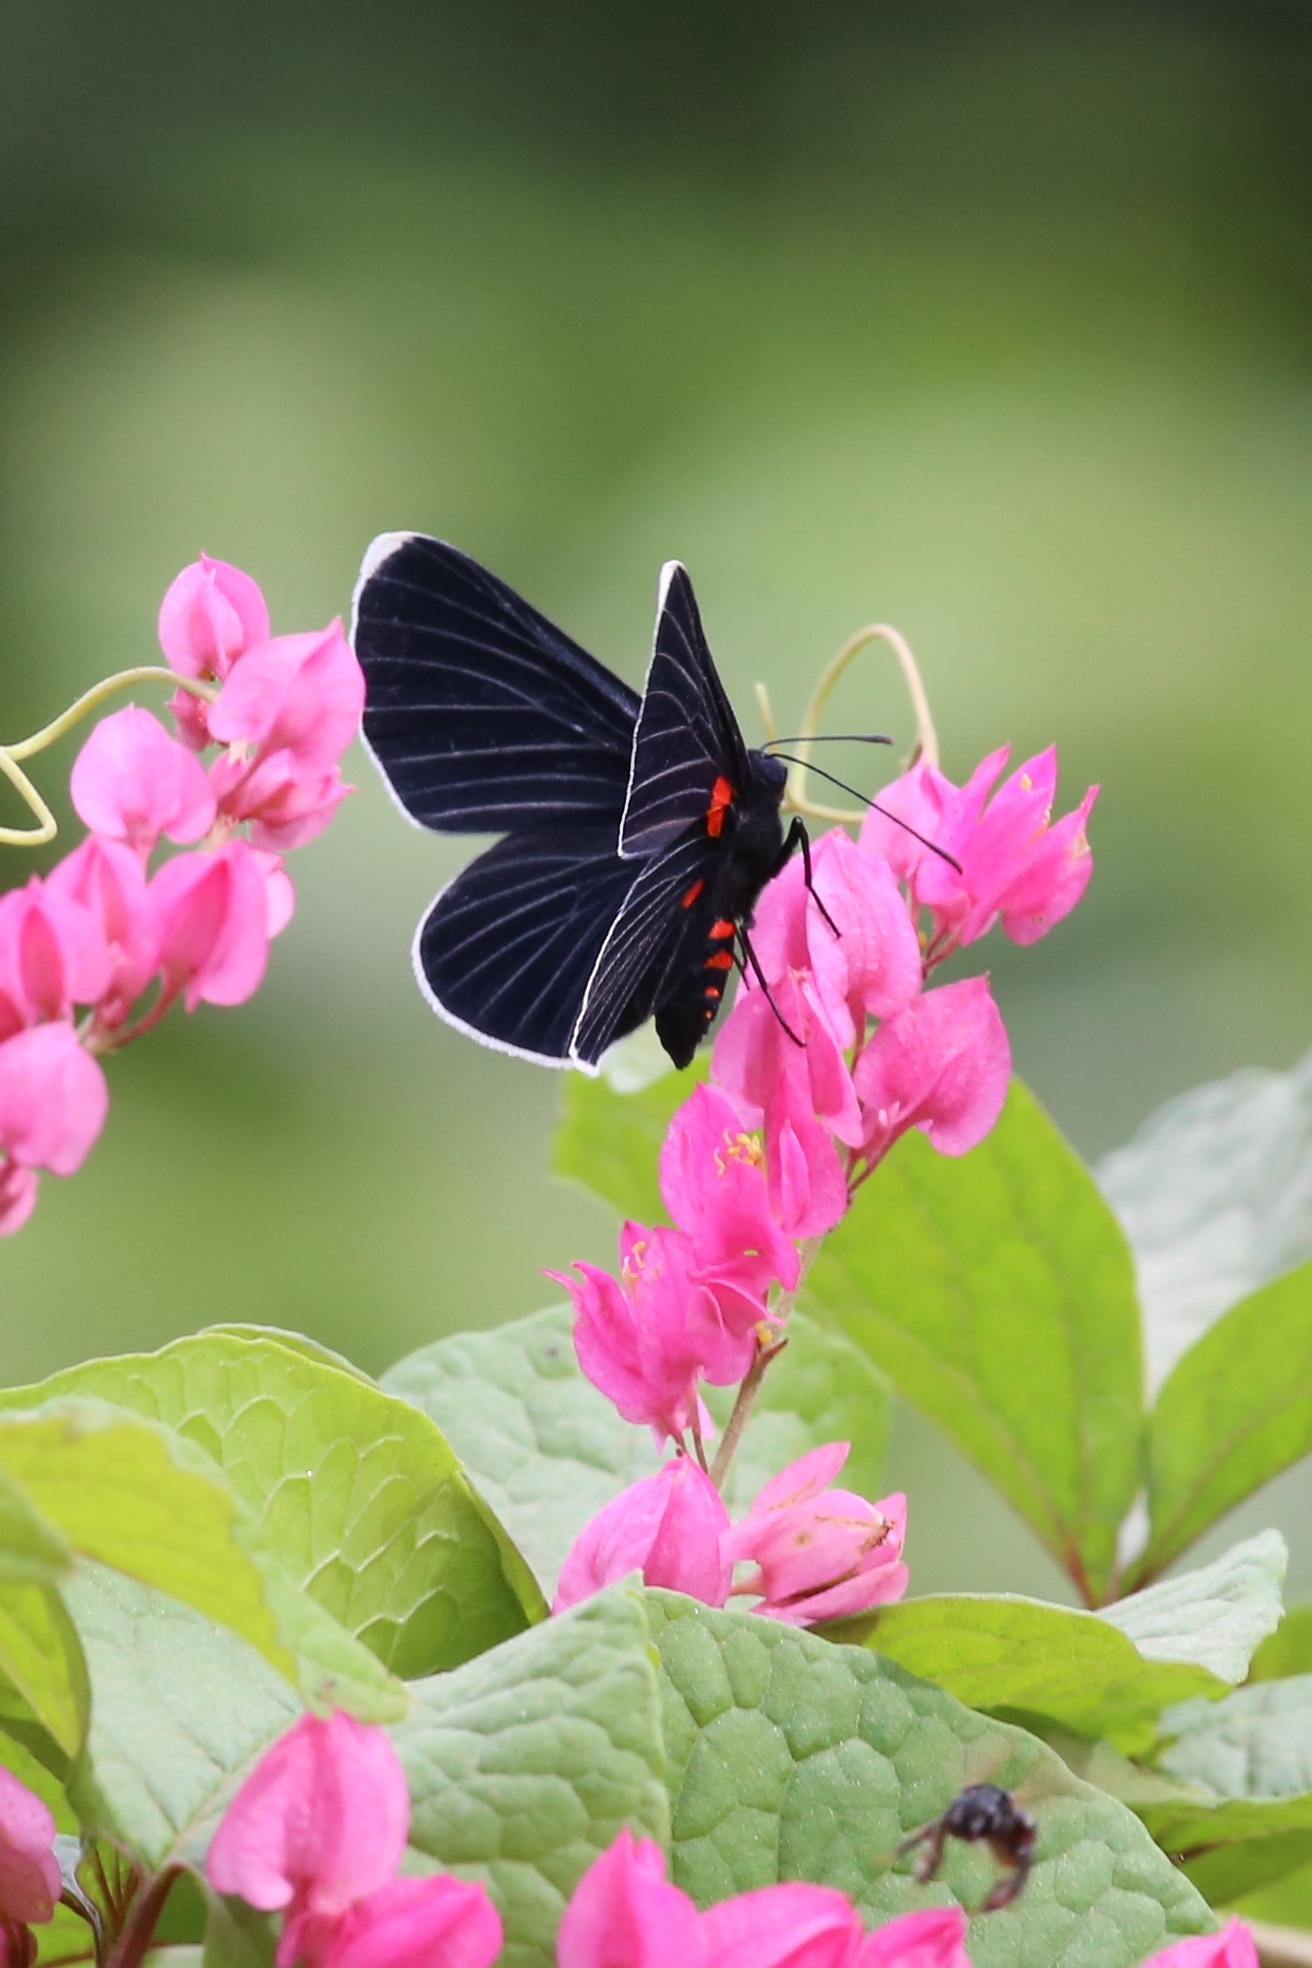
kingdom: Animalia
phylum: Arthropoda
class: Insecta
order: Lepidoptera
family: Lycaenidae
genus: Melanis
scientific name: Melanis
